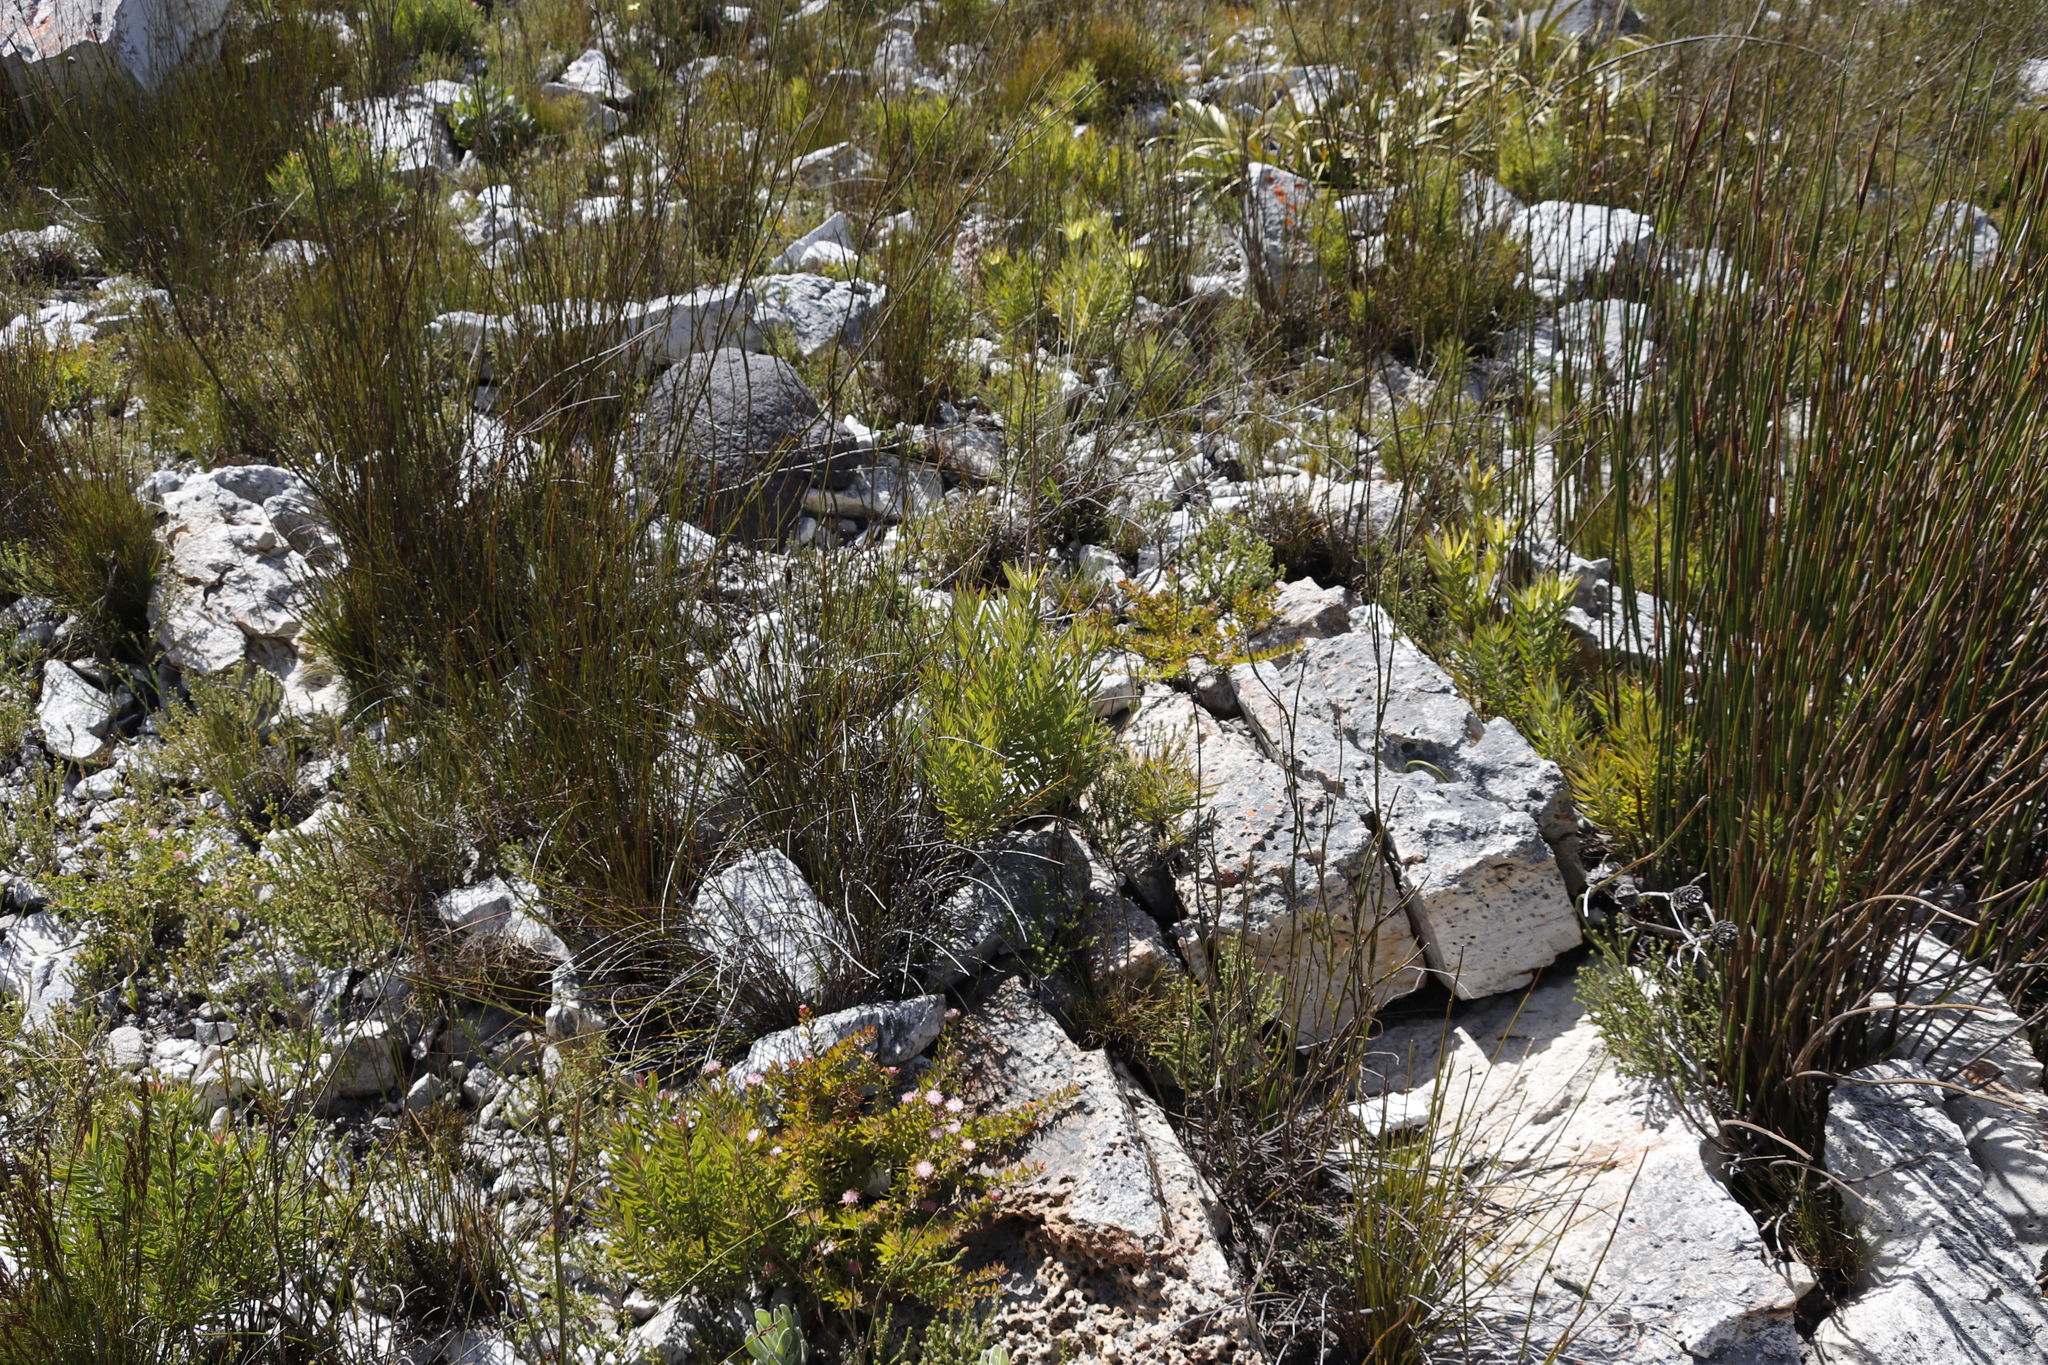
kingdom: Plantae
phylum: Tracheophyta
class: Magnoliopsida
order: Proteales
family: Proteaceae
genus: Leucadendron
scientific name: Leucadendron xanthoconus
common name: Sickle-leaf conebush
